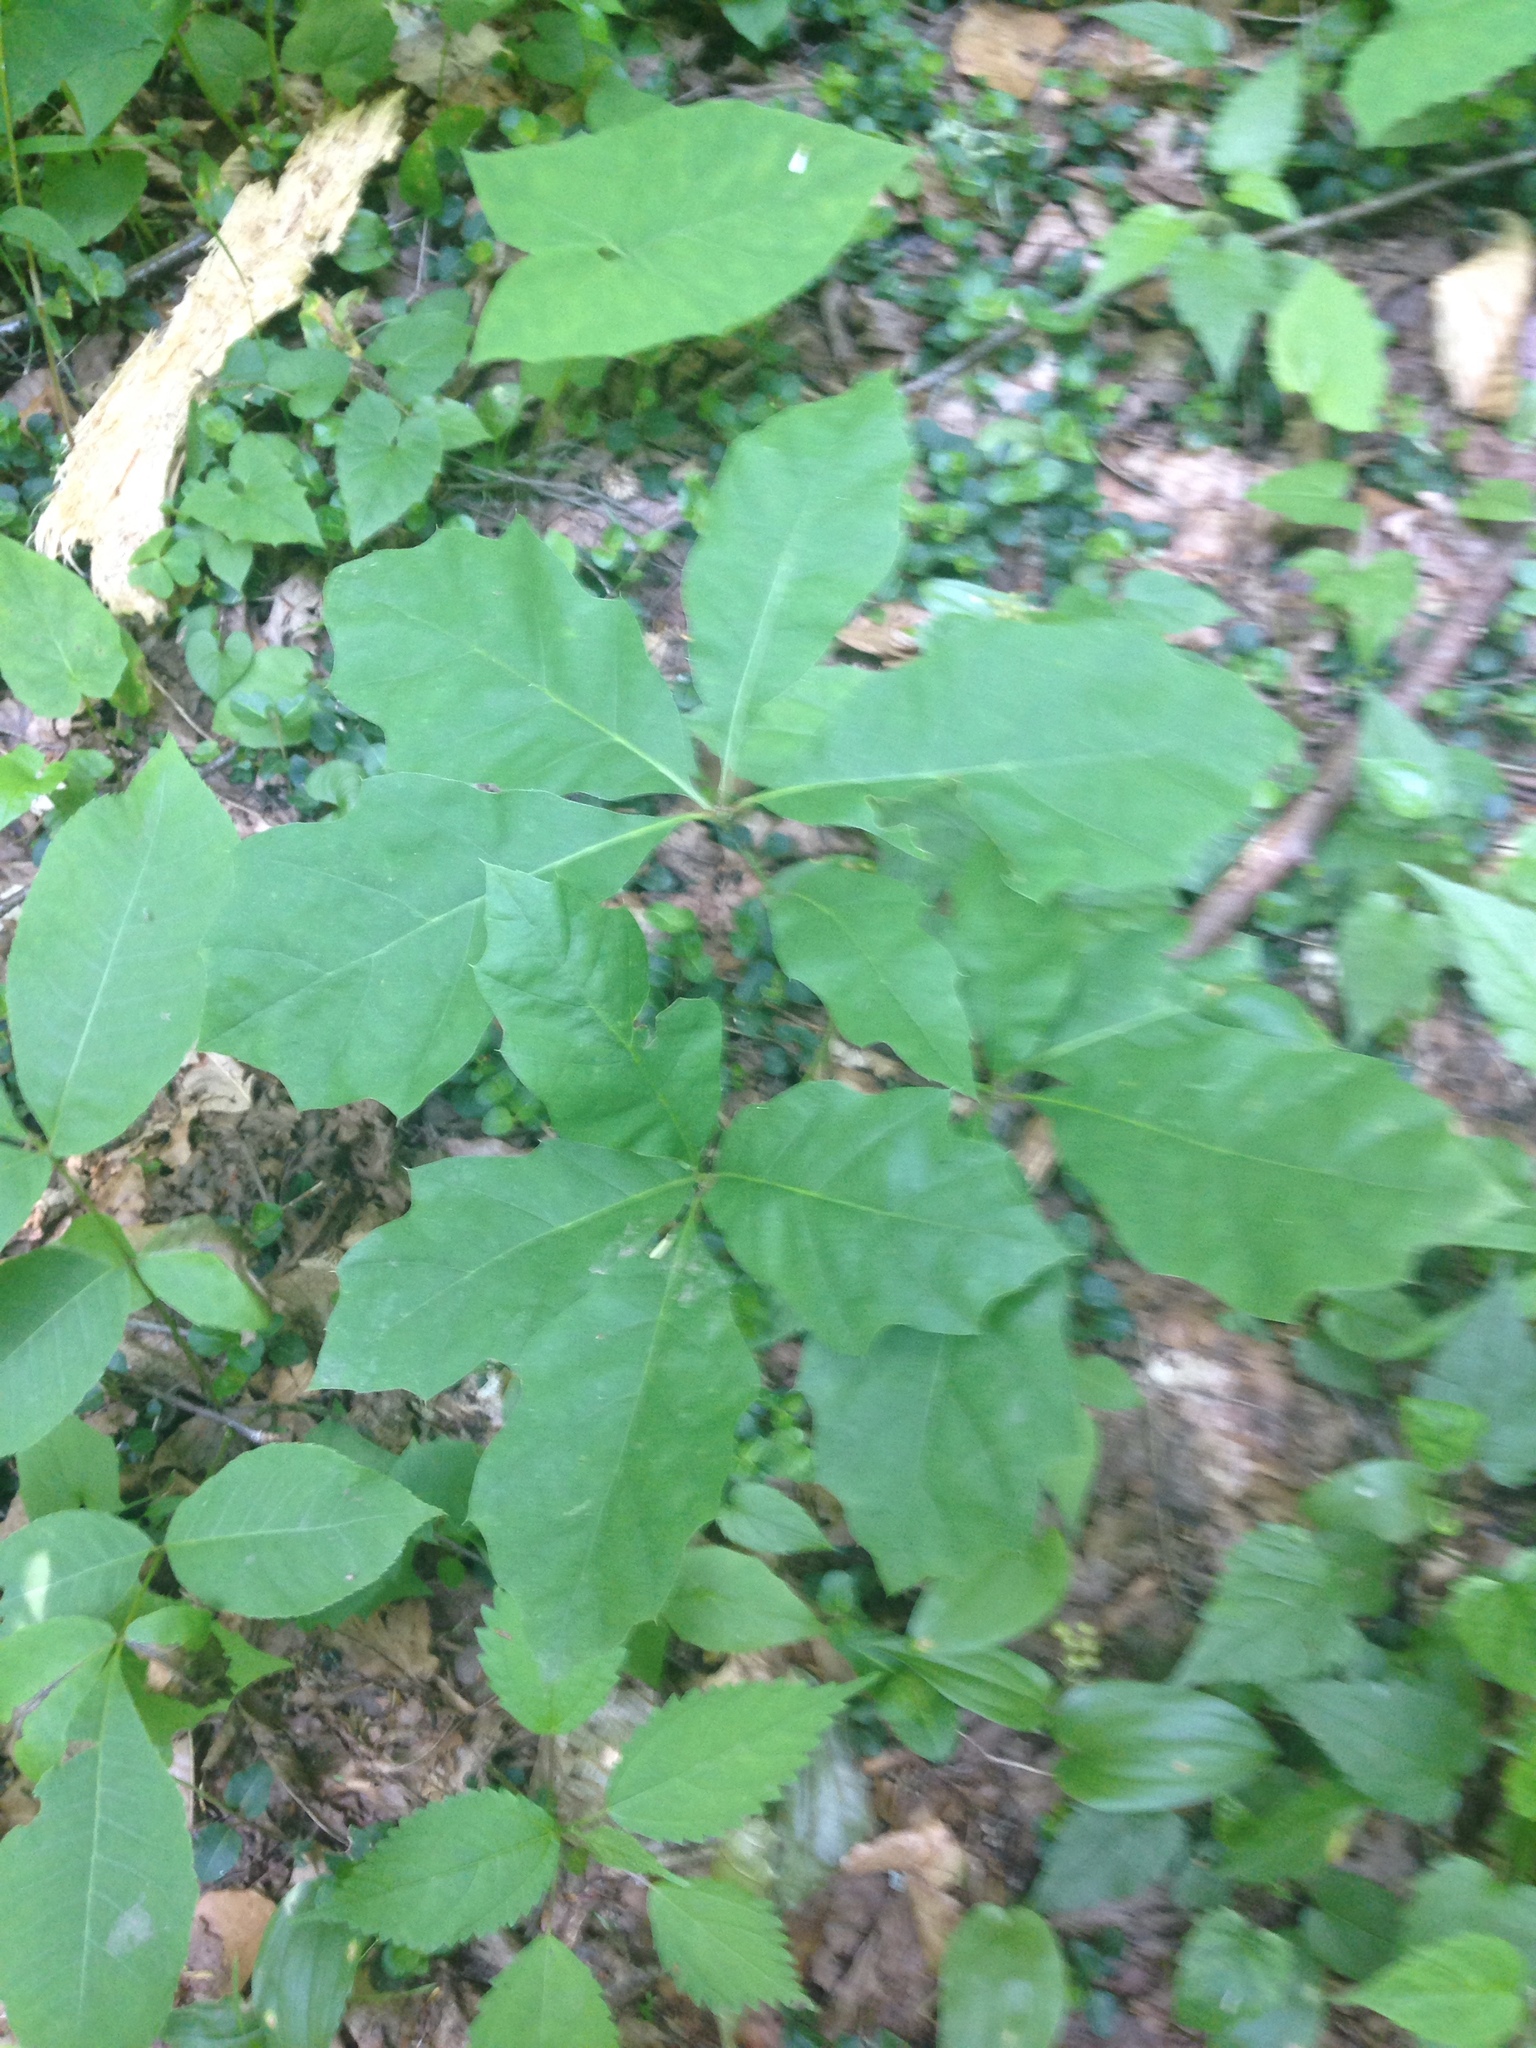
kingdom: Plantae
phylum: Tracheophyta
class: Magnoliopsida
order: Fagales
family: Fagaceae
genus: Quercus
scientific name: Quercus rubra
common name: Red oak
